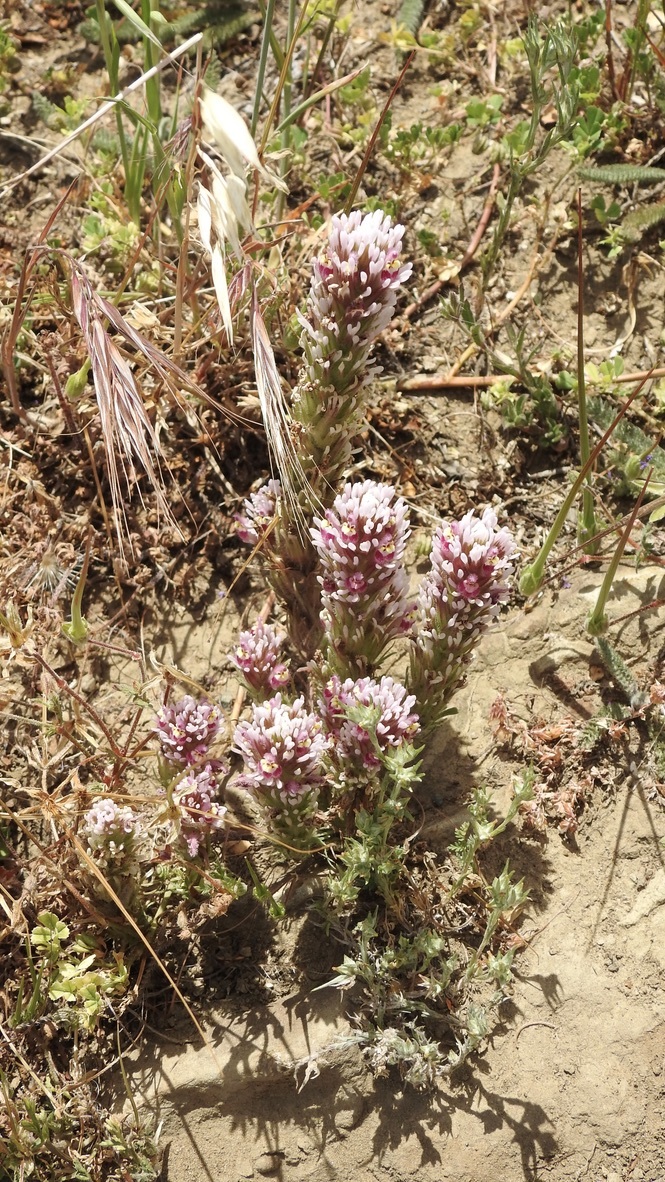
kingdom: Plantae
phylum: Tracheophyta
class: Magnoliopsida
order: Lamiales
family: Orobanchaceae
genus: Castilleja
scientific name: Castilleja exserta
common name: Purple owl-clover
